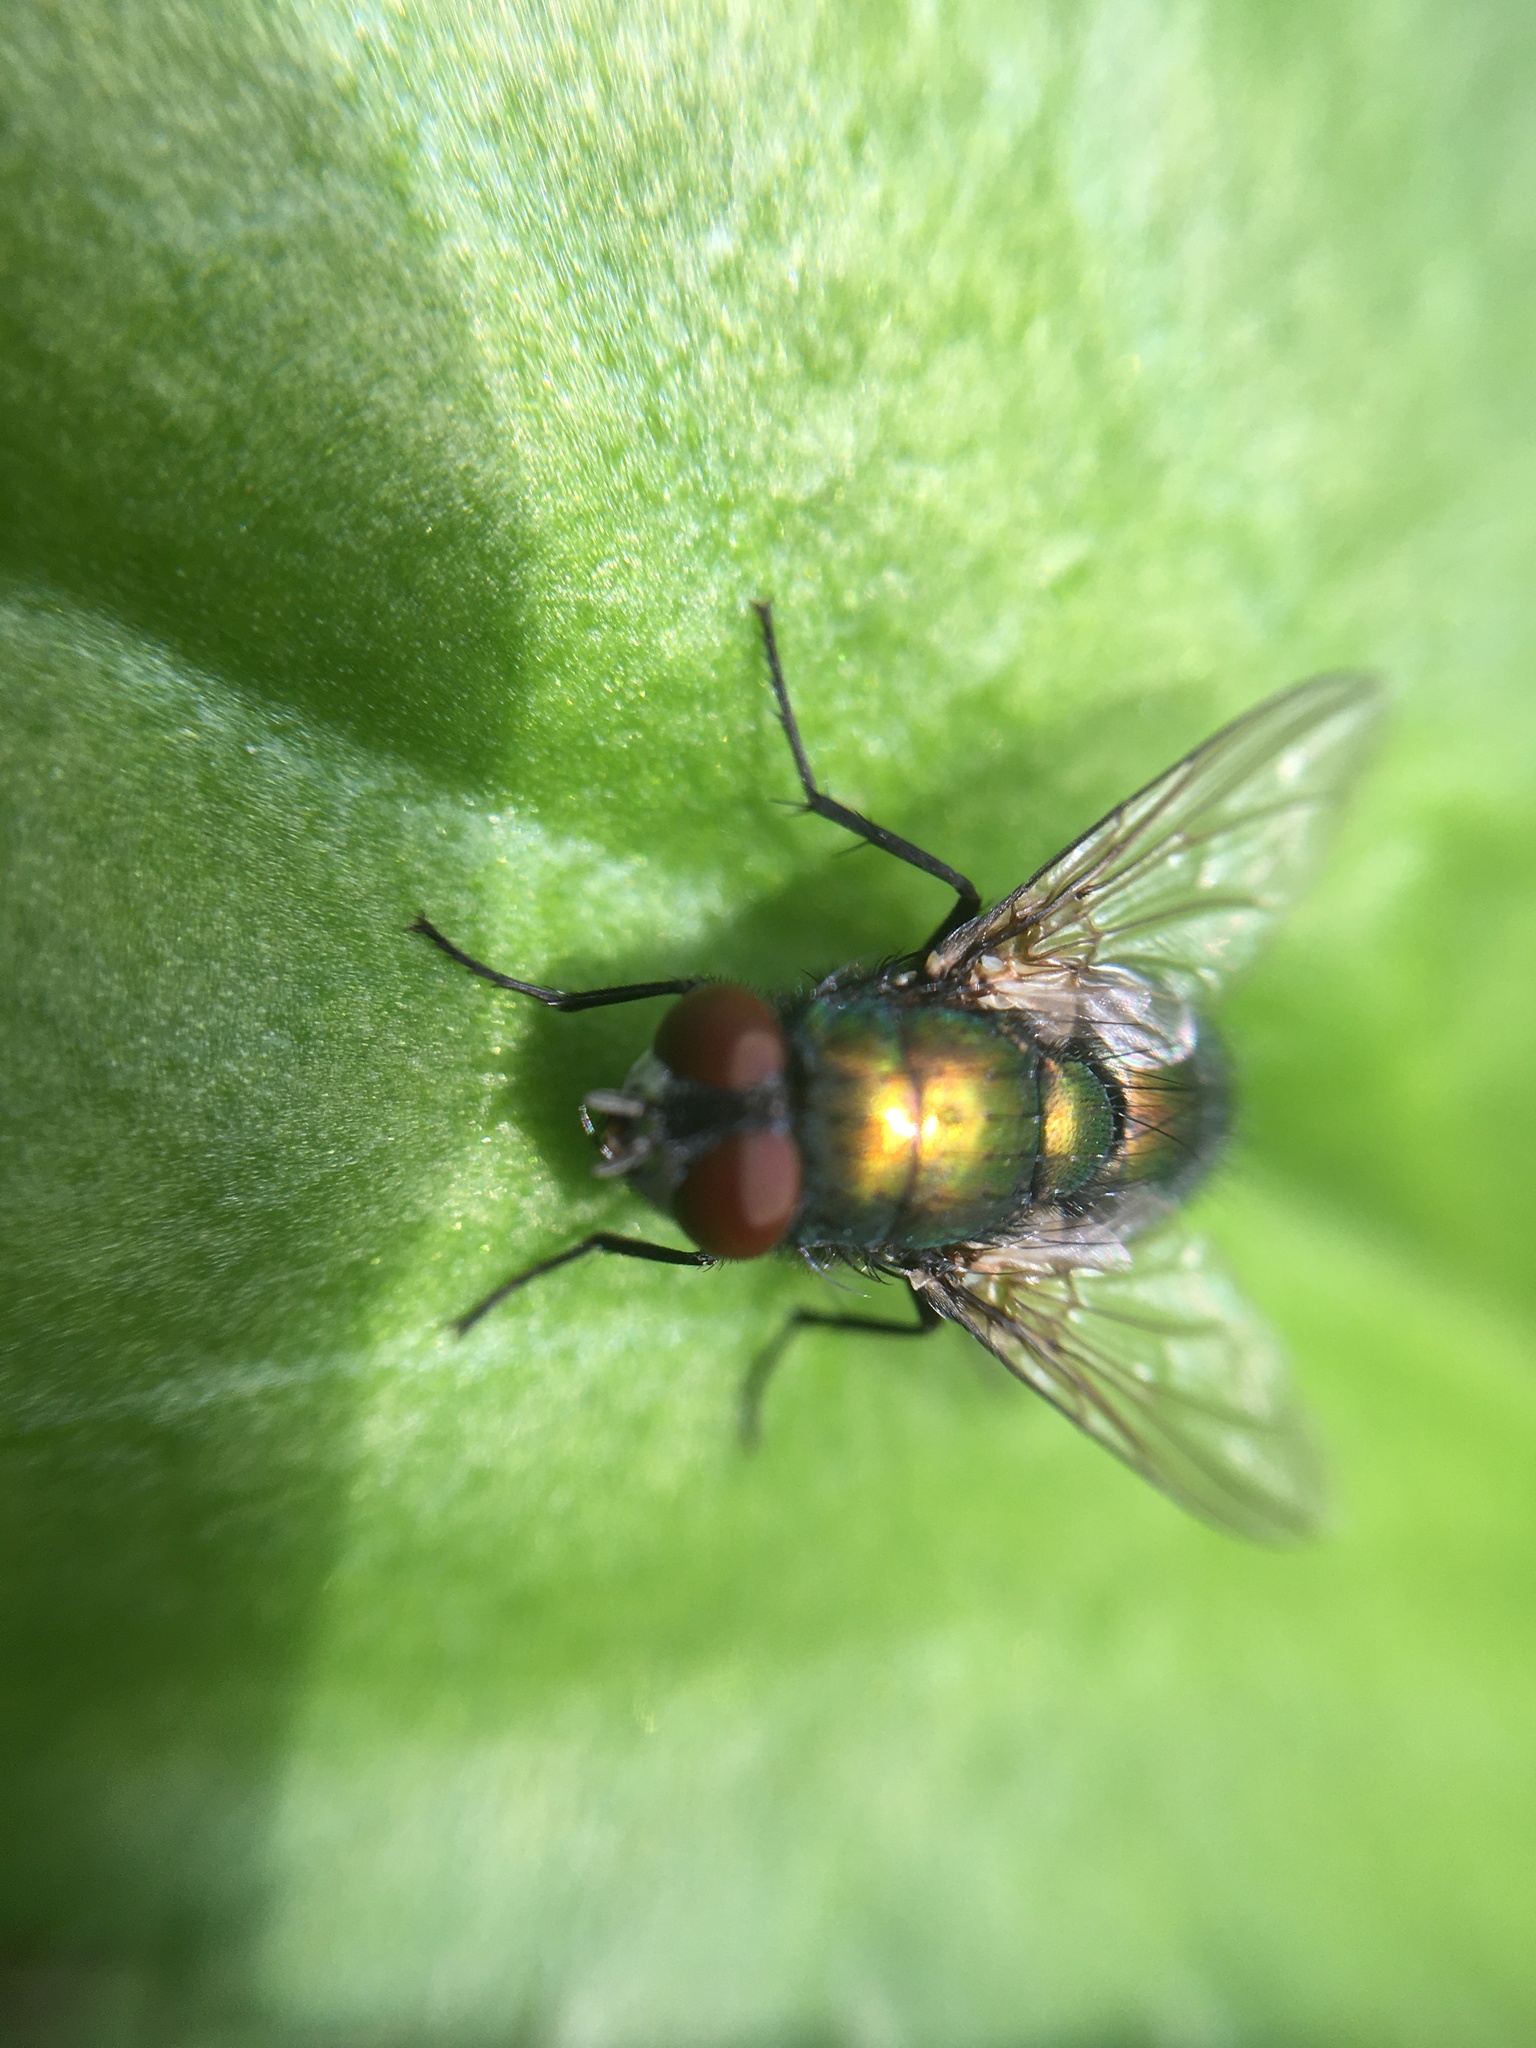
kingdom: Animalia
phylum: Arthropoda
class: Insecta
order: Diptera
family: Calliphoridae
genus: Lucilia
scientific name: Lucilia sericata
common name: Blow fly
